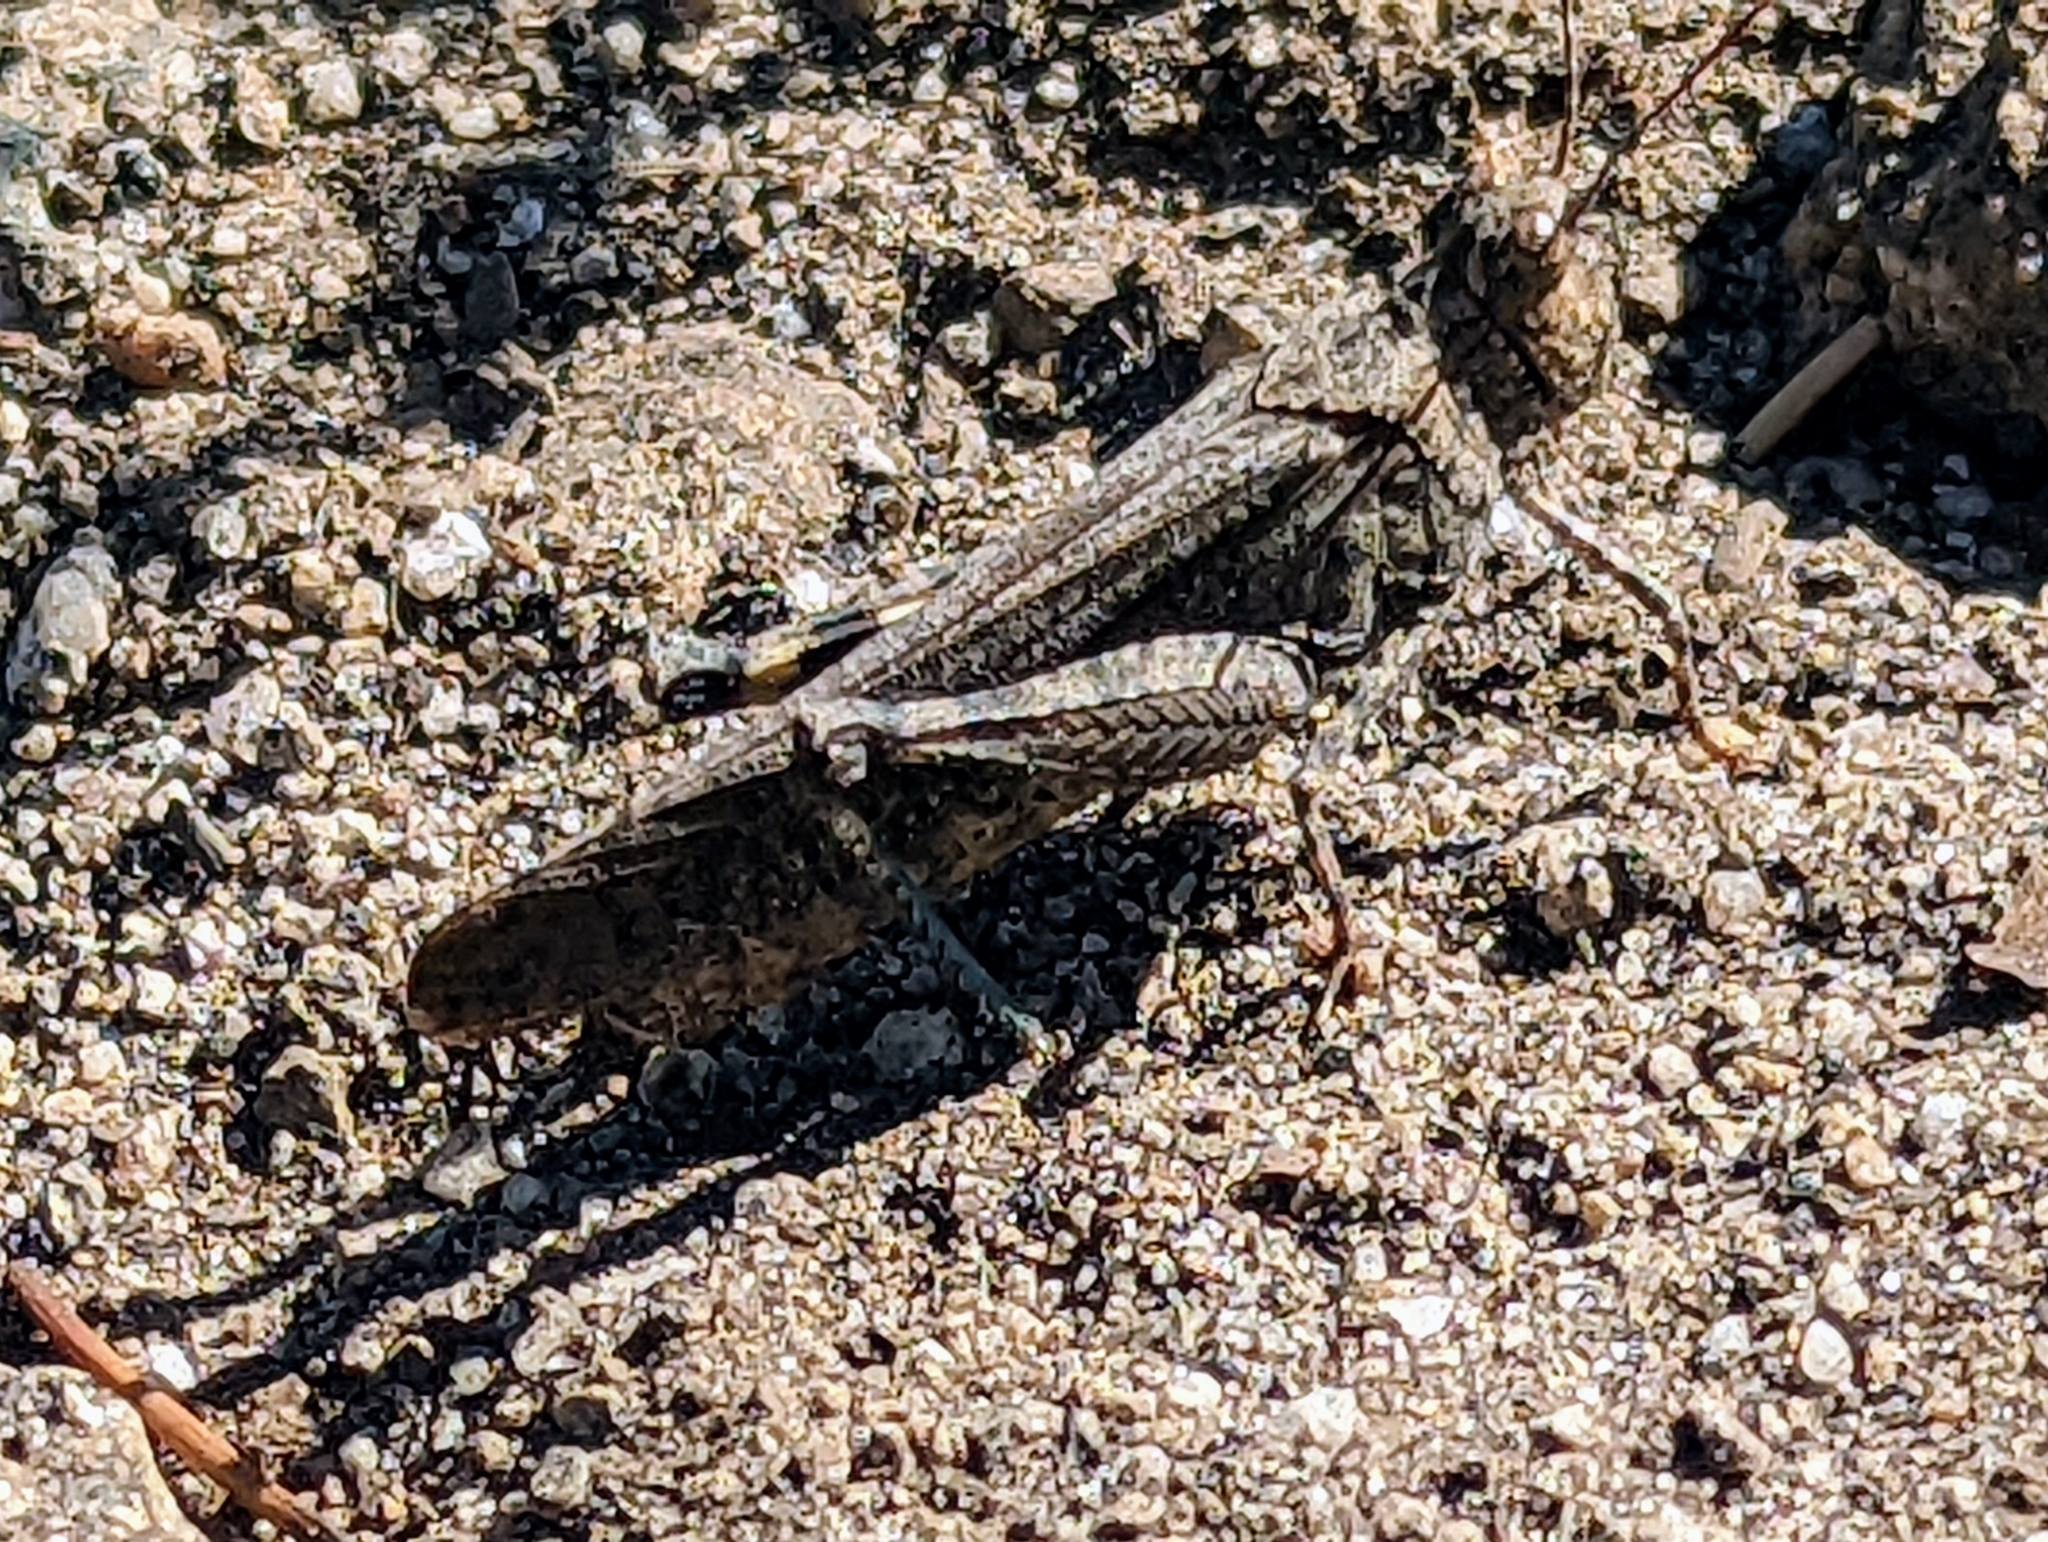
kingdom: Animalia
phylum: Arthropoda
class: Insecta
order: Orthoptera
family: Acrididae
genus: Trimerotropis
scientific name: Trimerotropis verruculata
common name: Crackling forest grasshopper
